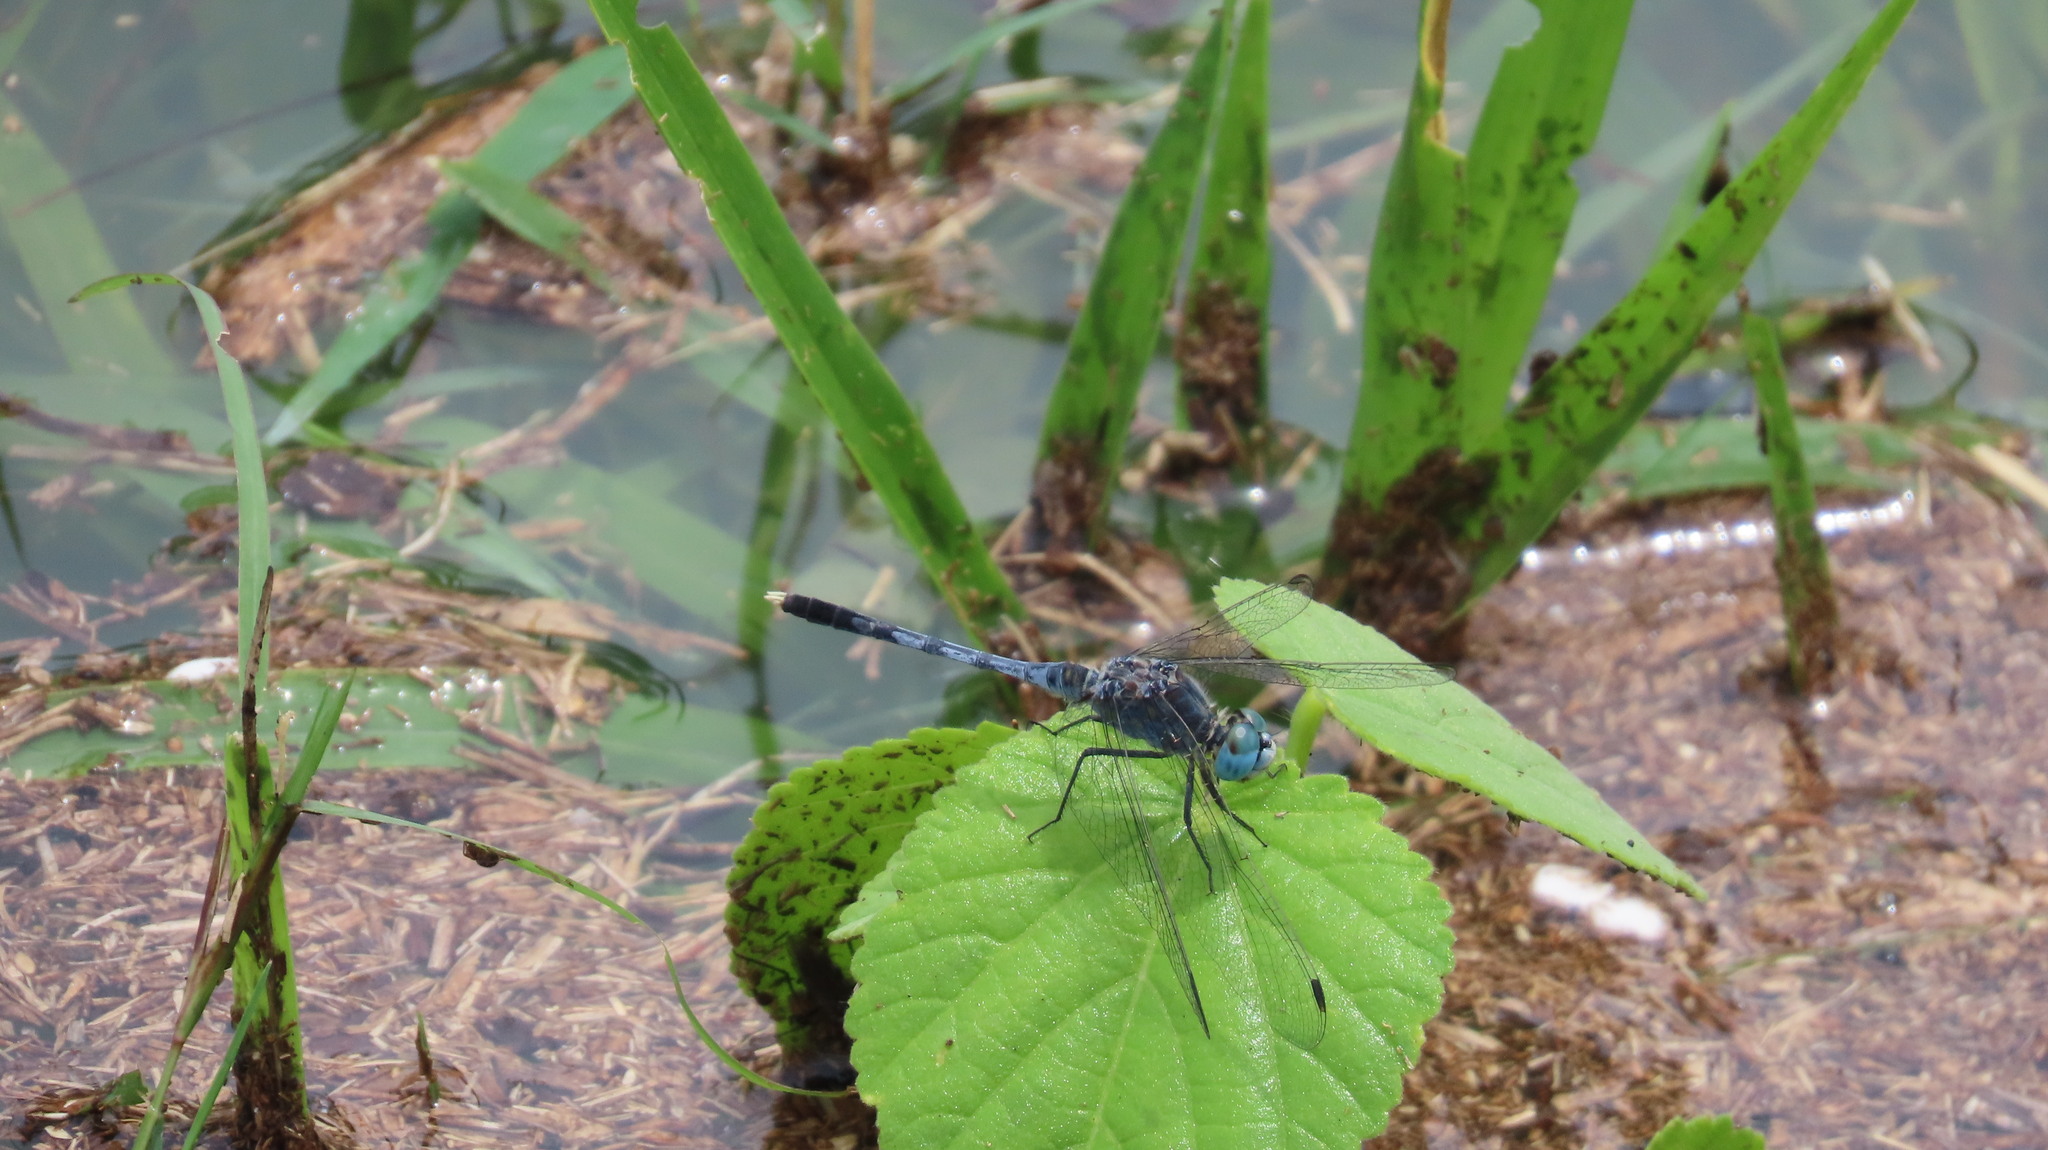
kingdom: Animalia
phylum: Arthropoda
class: Insecta
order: Odonata
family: Libellulidae
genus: Diplacodes
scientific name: Diplacodes trivialis
